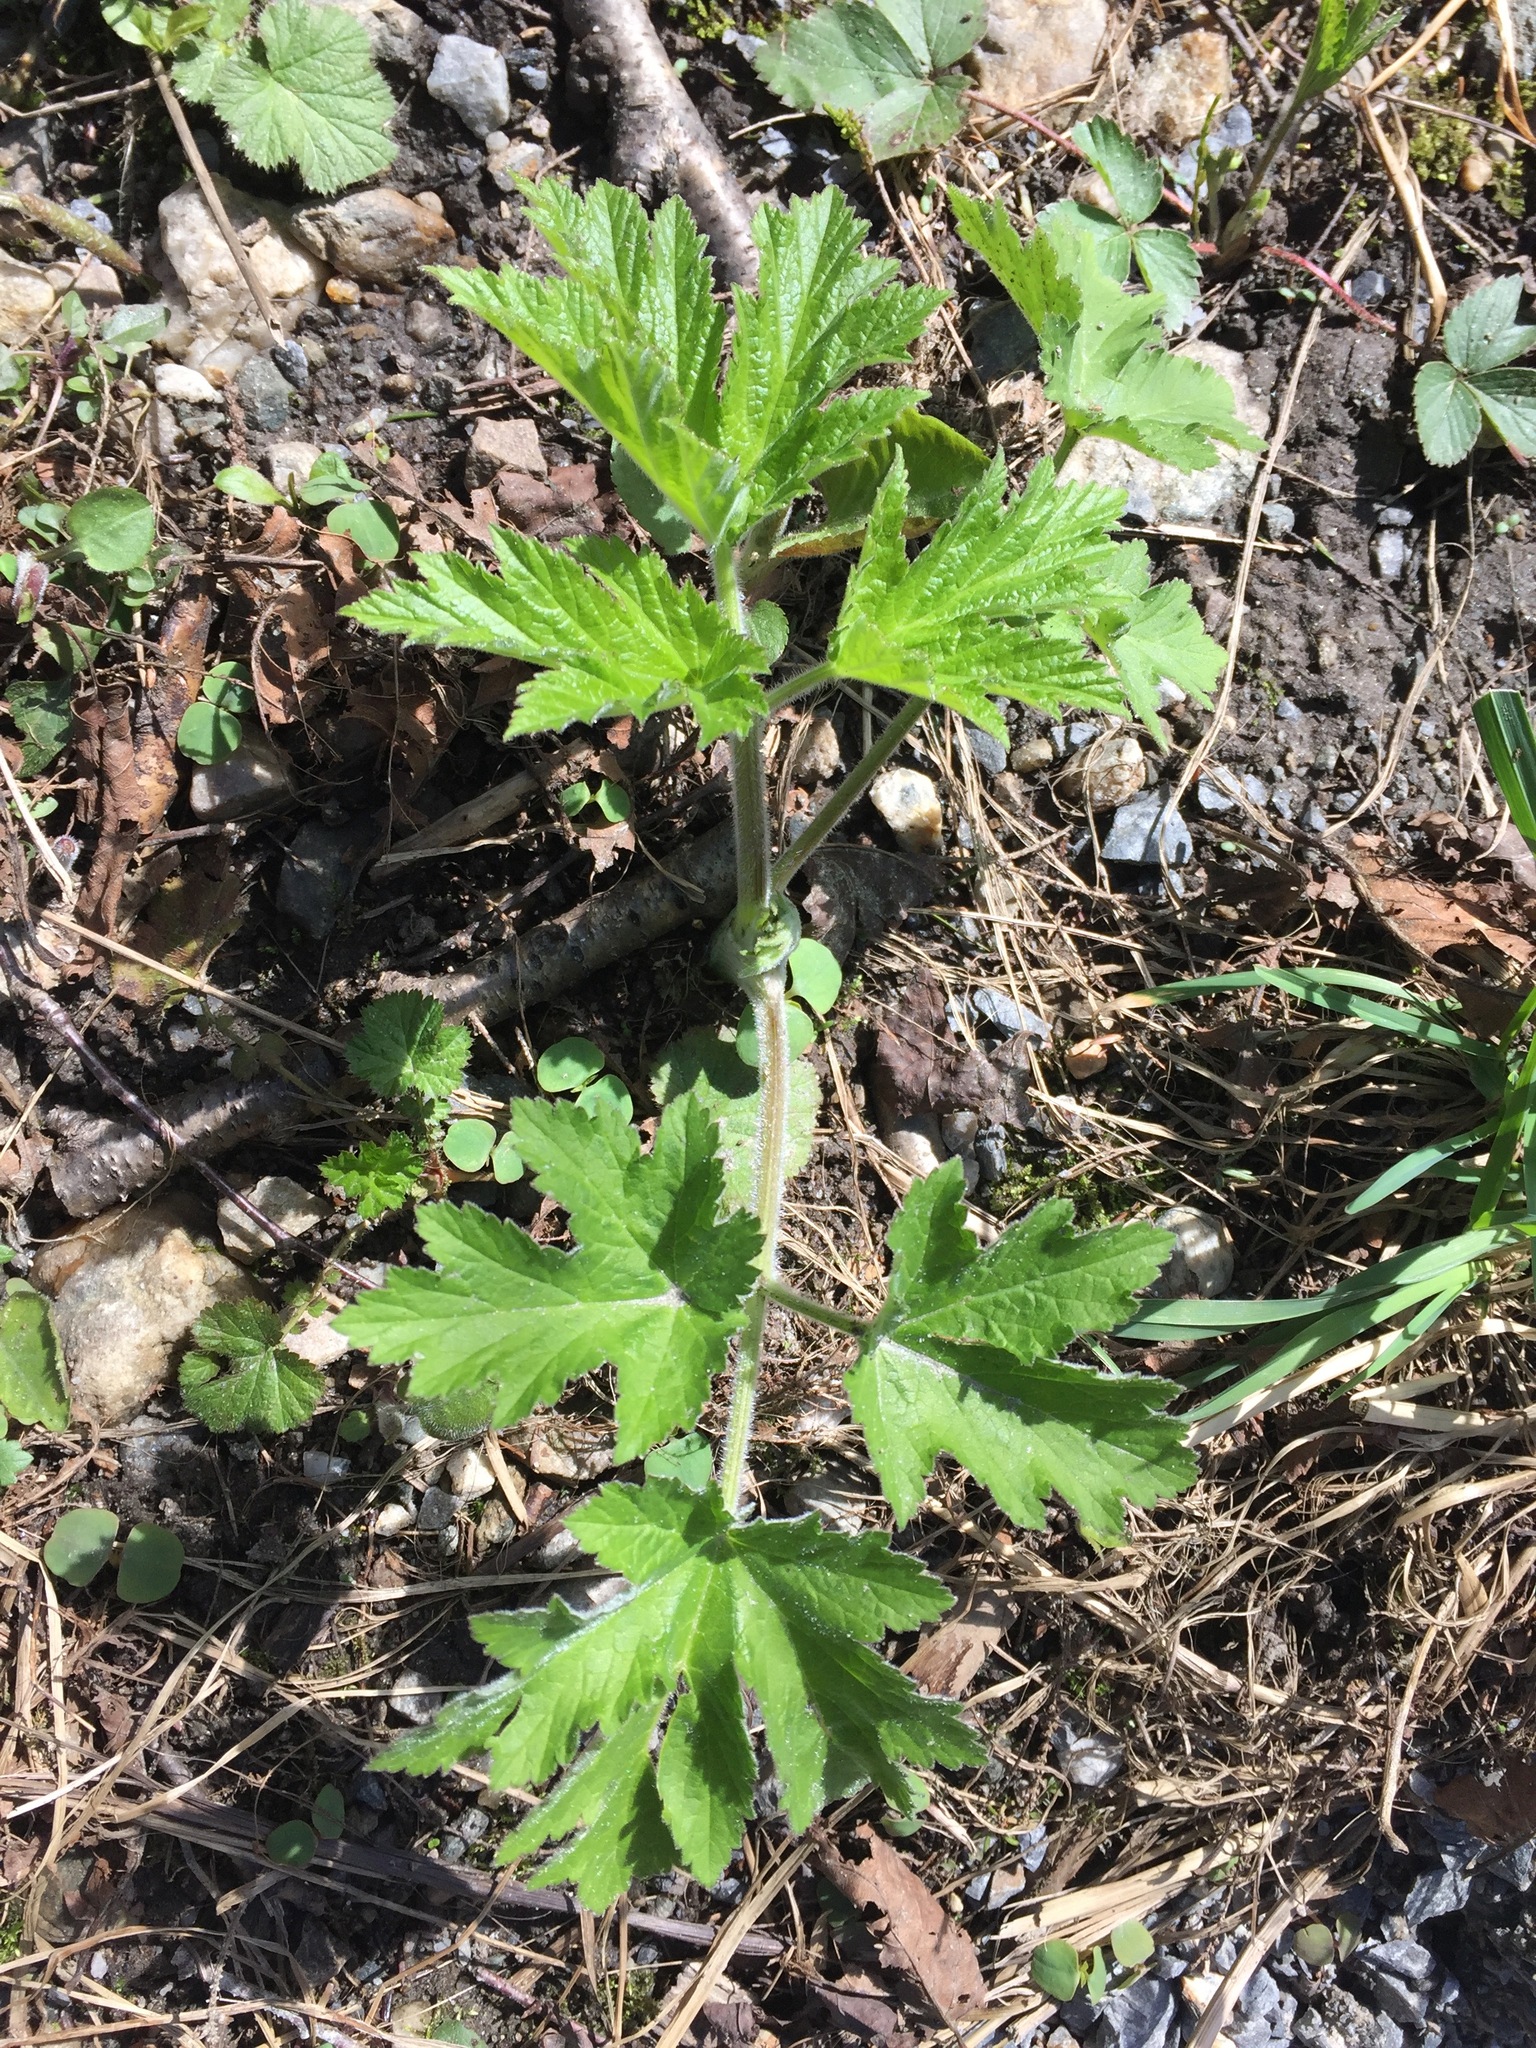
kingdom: Plantae
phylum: Tracheophyta
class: Magnoliopsida
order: Apiales
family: Apiaceae
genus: Heracleum
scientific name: Heracleum maximum
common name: American cow parsnip
